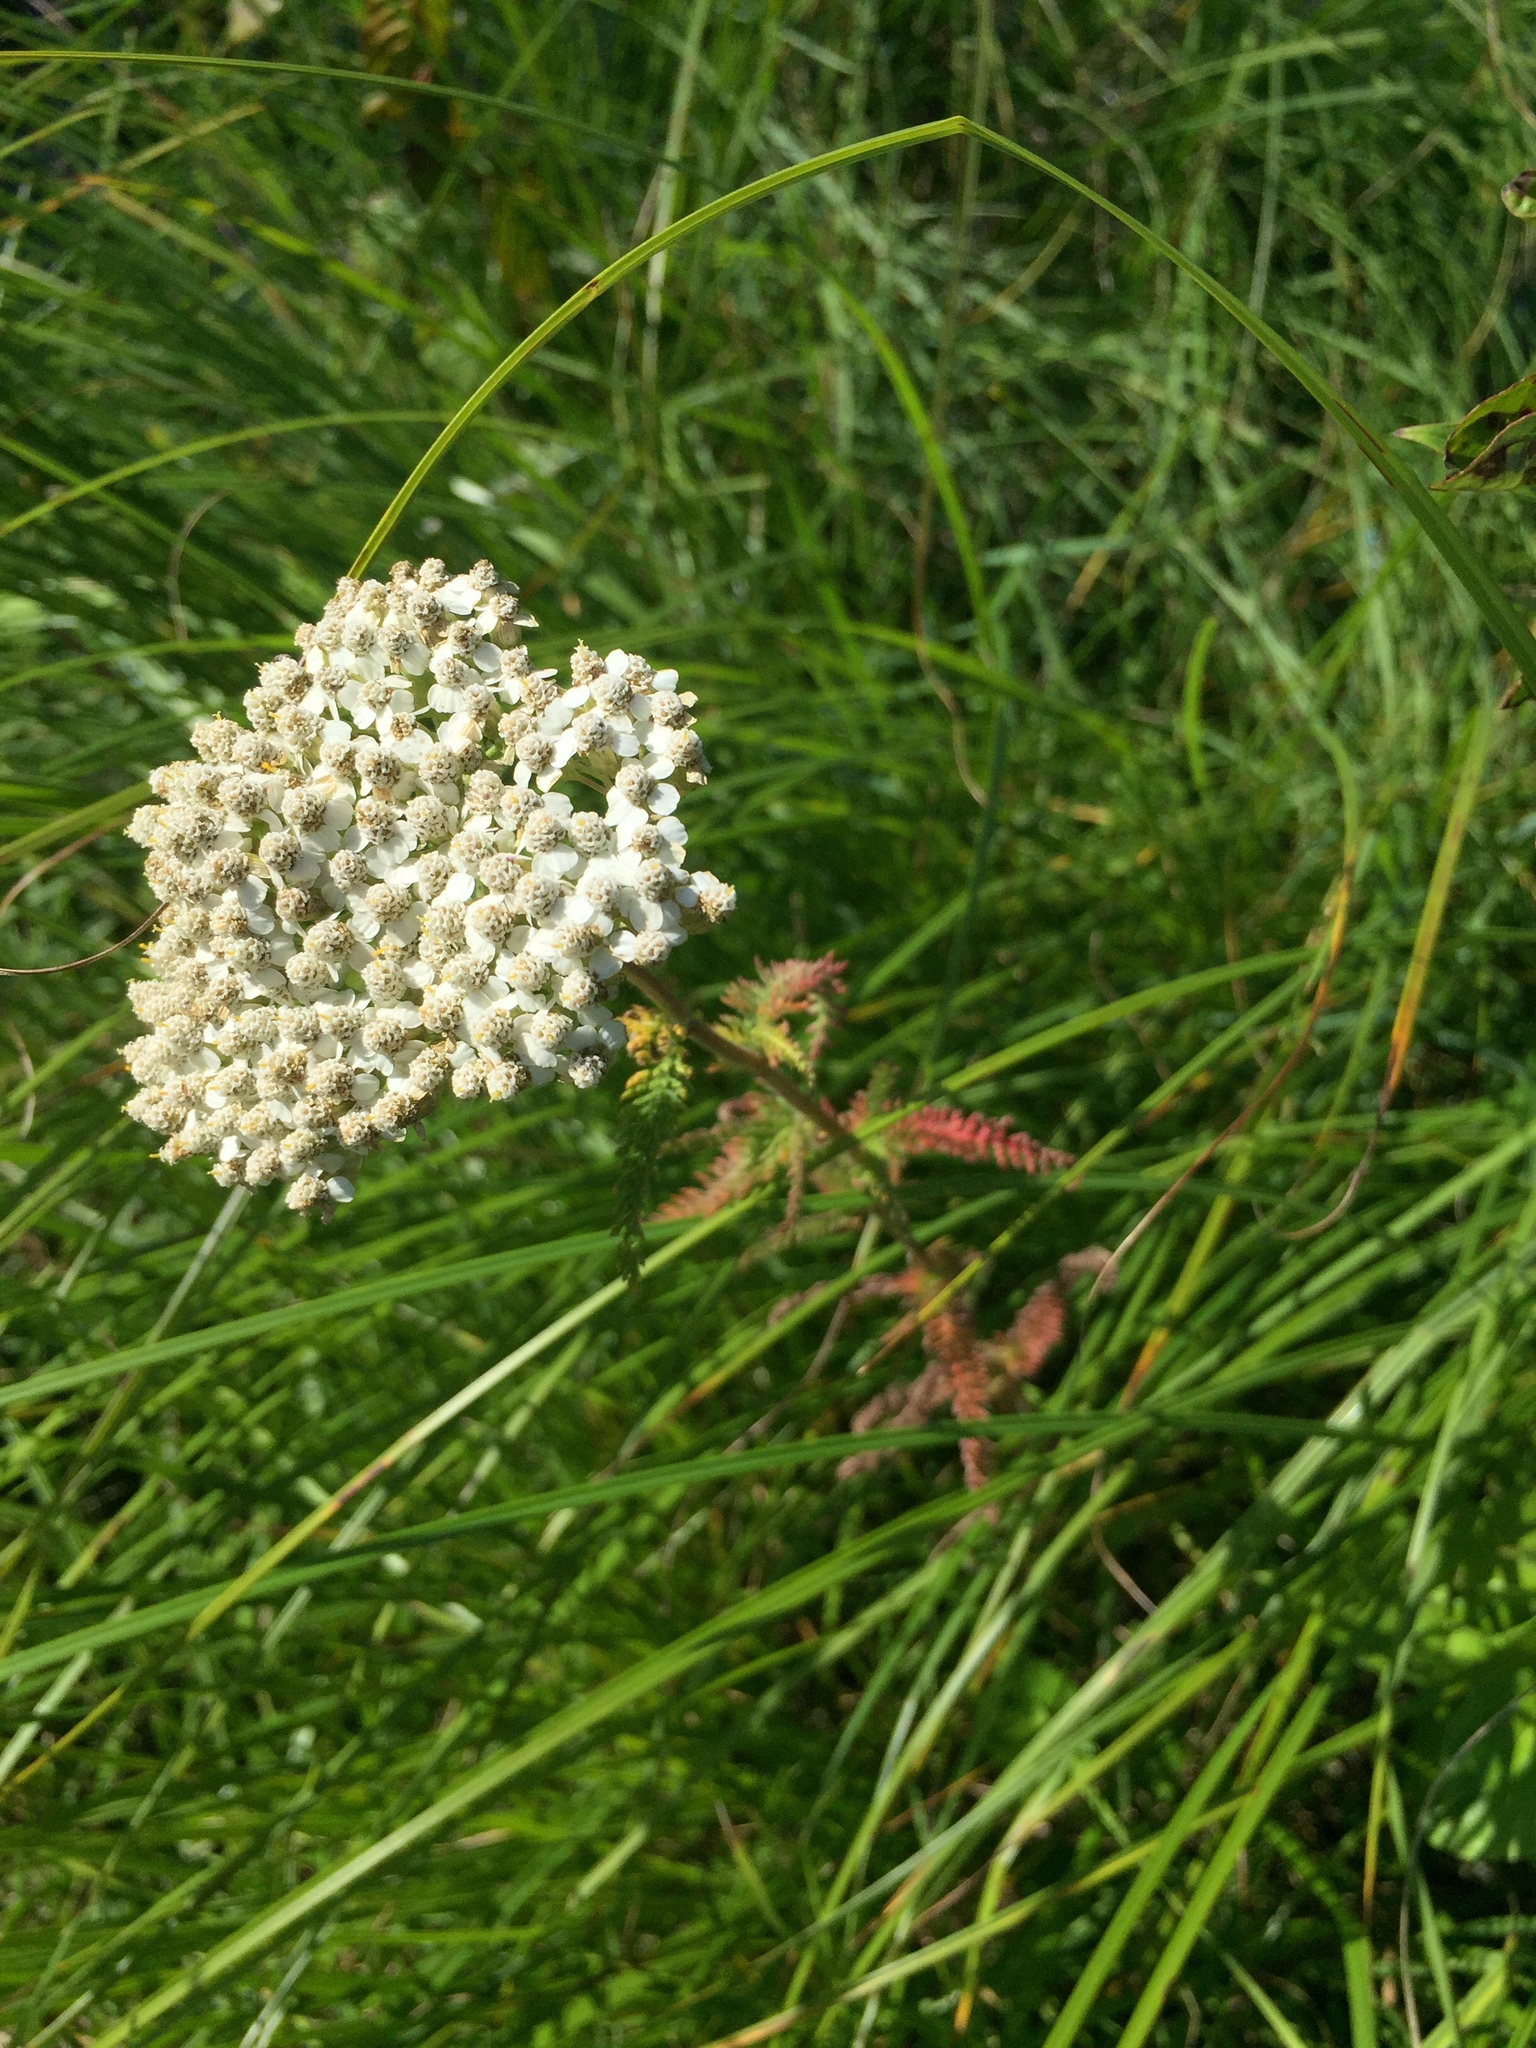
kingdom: Plantae
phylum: Tracheophyta
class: Magnoliopsida
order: Asterales
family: Asteraceae
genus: Achillea
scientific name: Achillea millefolium
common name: Yarrow
